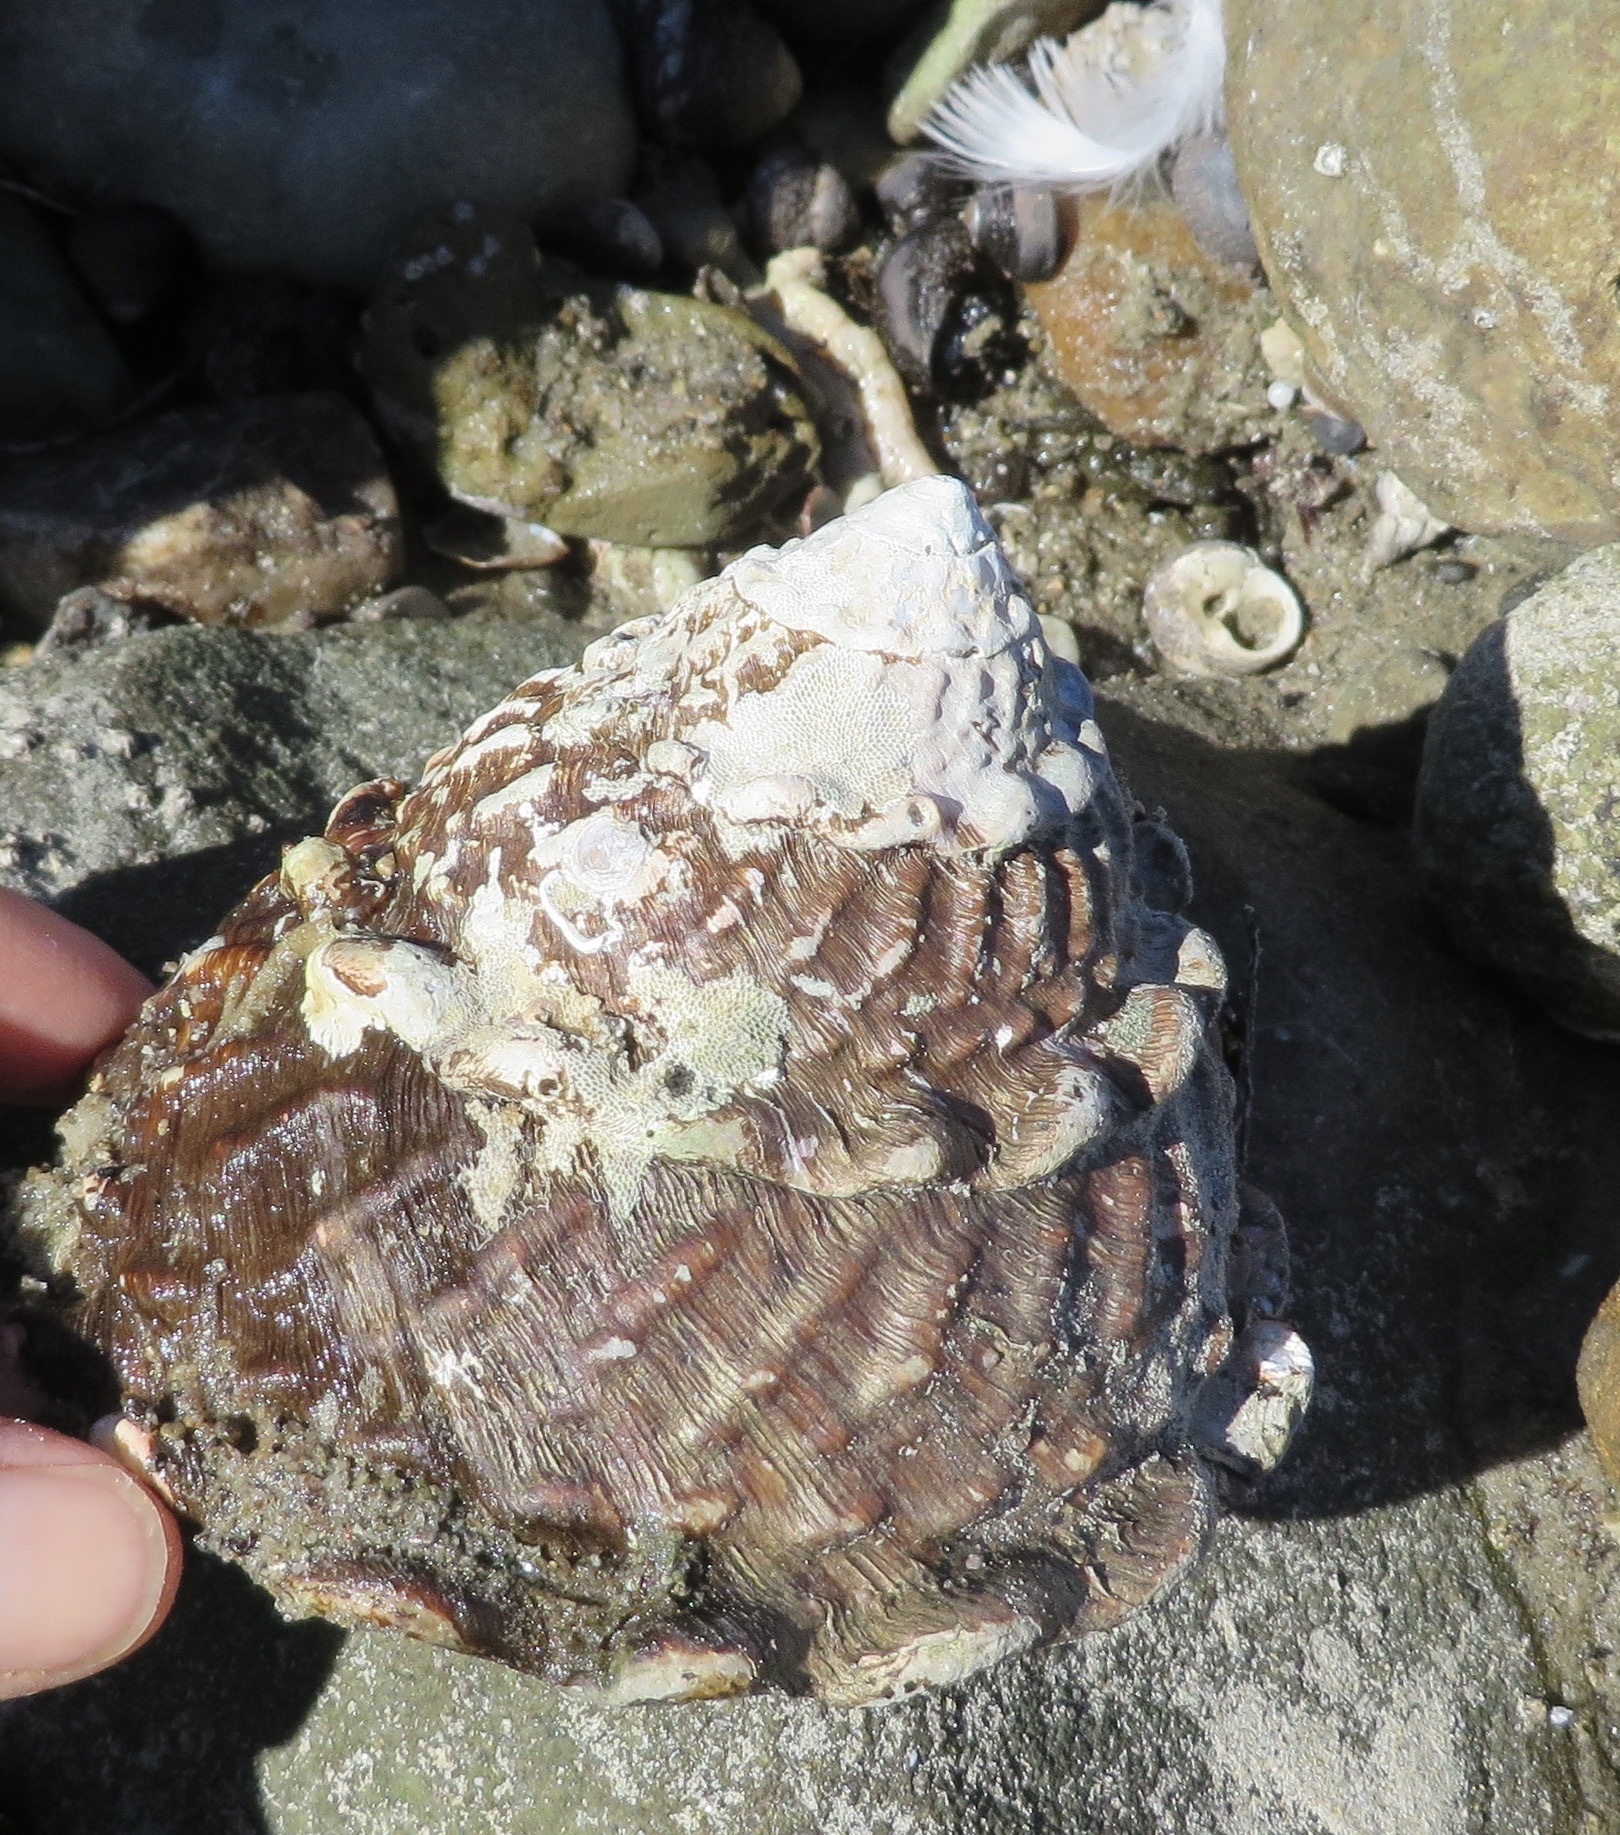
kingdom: Animalia
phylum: Mollusca
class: Gastropoda
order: Trochida
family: Turbinidae
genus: Megastraea
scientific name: Megastraea undosa
